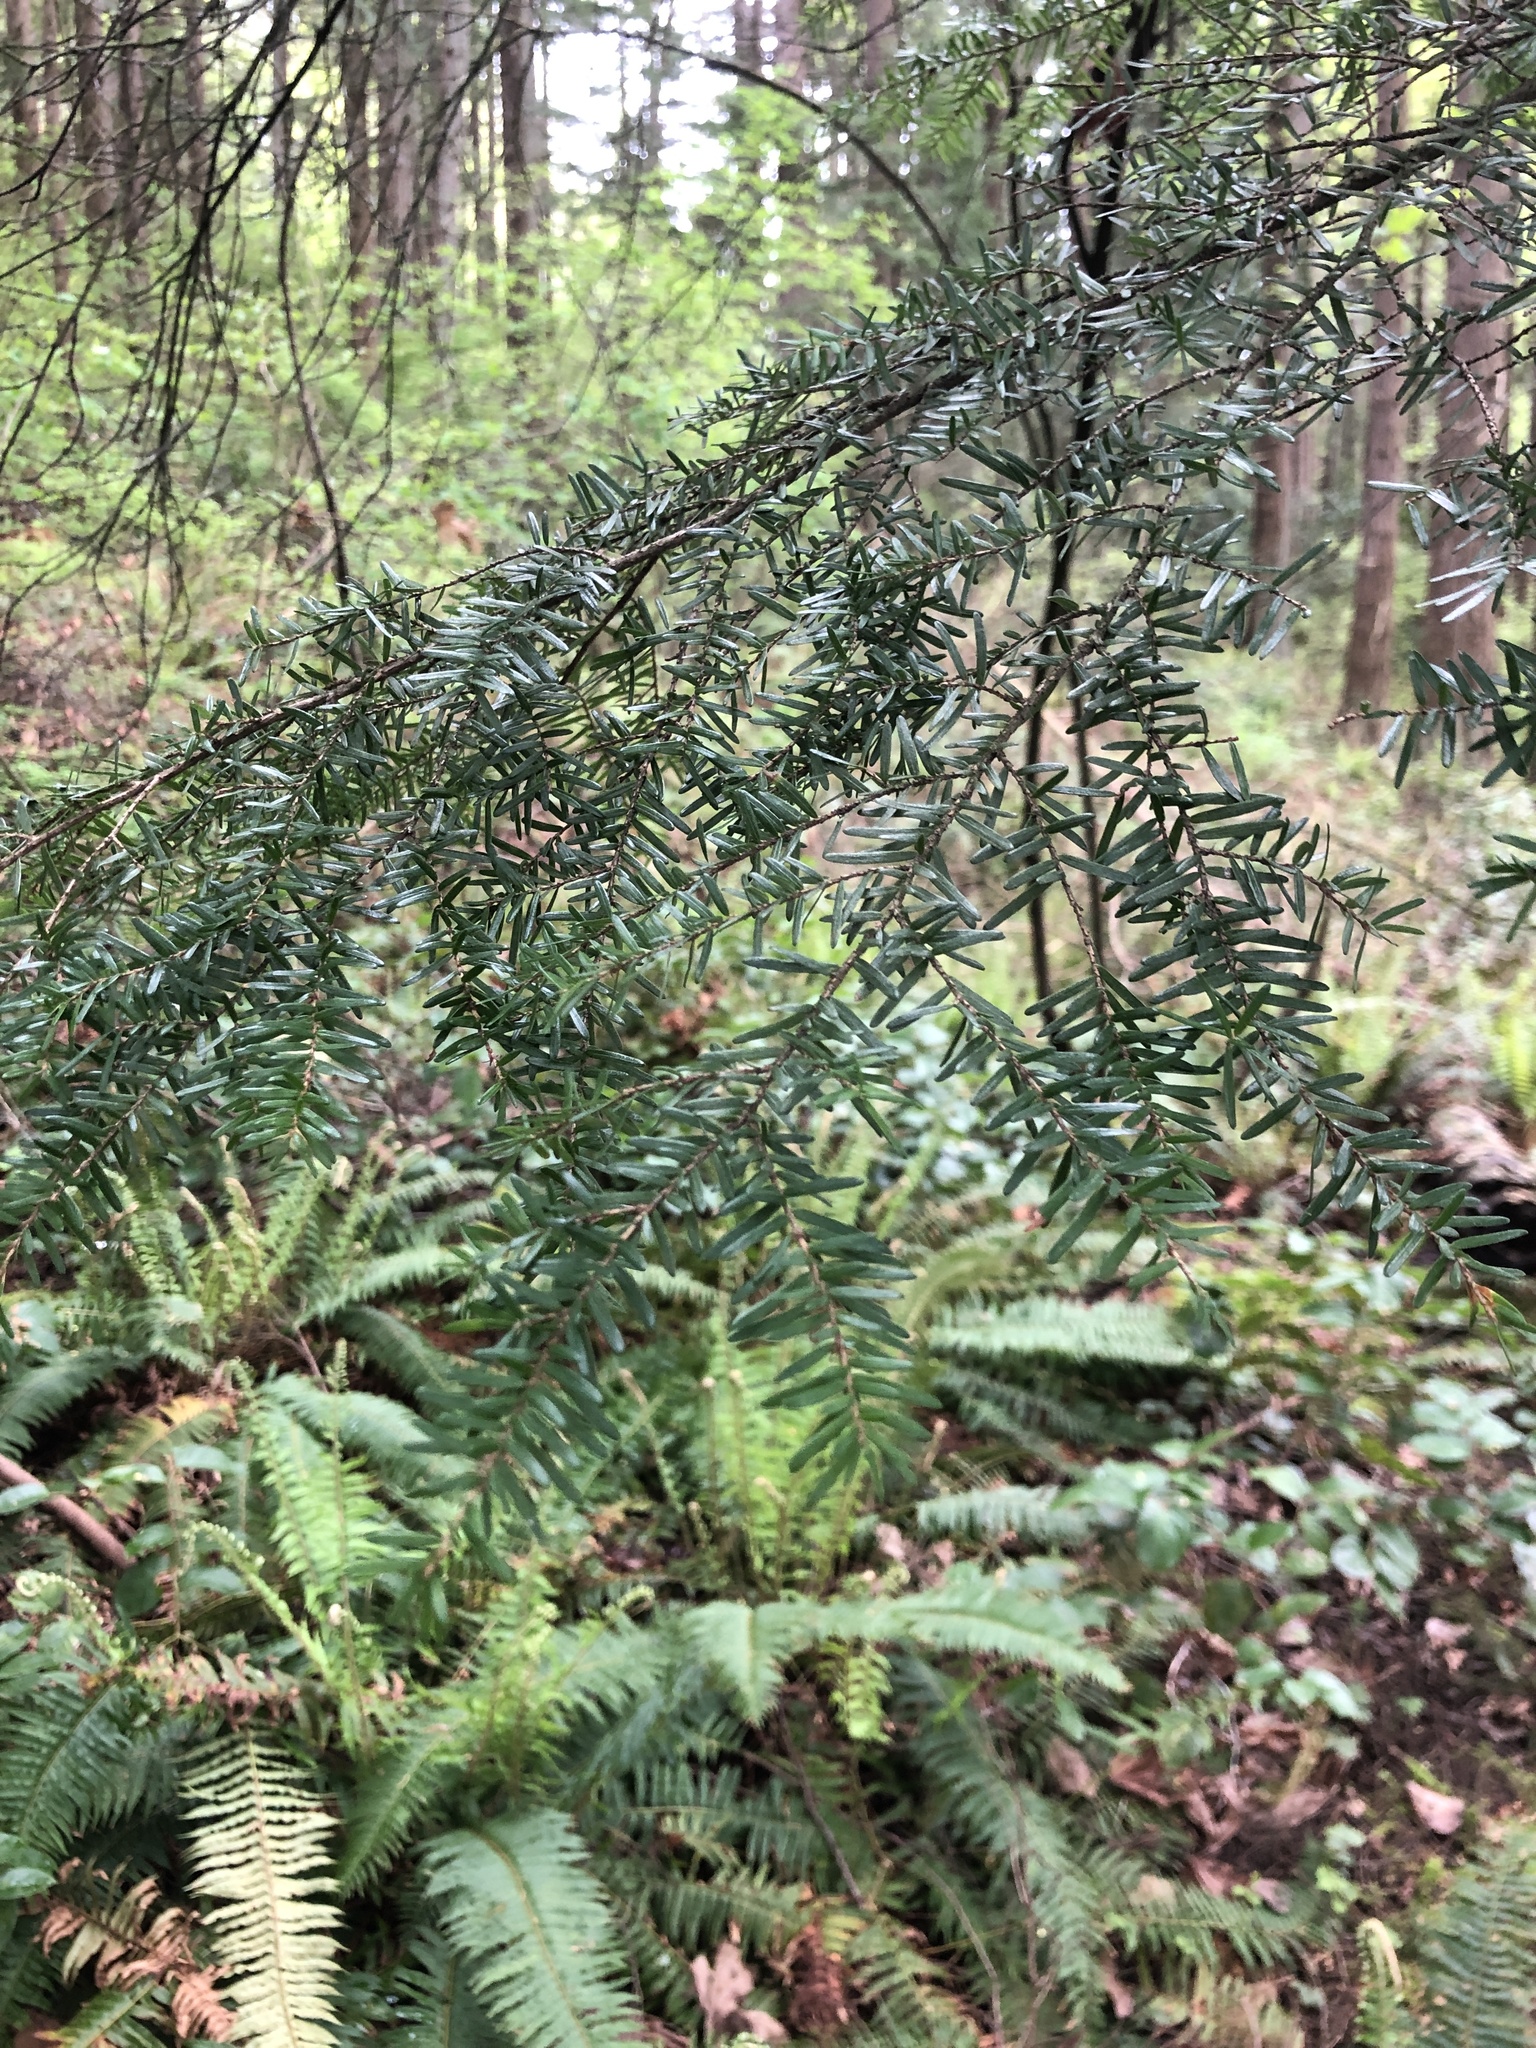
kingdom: Plantae
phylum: Tracheophyta
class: Pinopsida
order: Pinales
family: Pinaceae
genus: Tsuga
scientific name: Tsuga heterophylla
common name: Western hemlock
